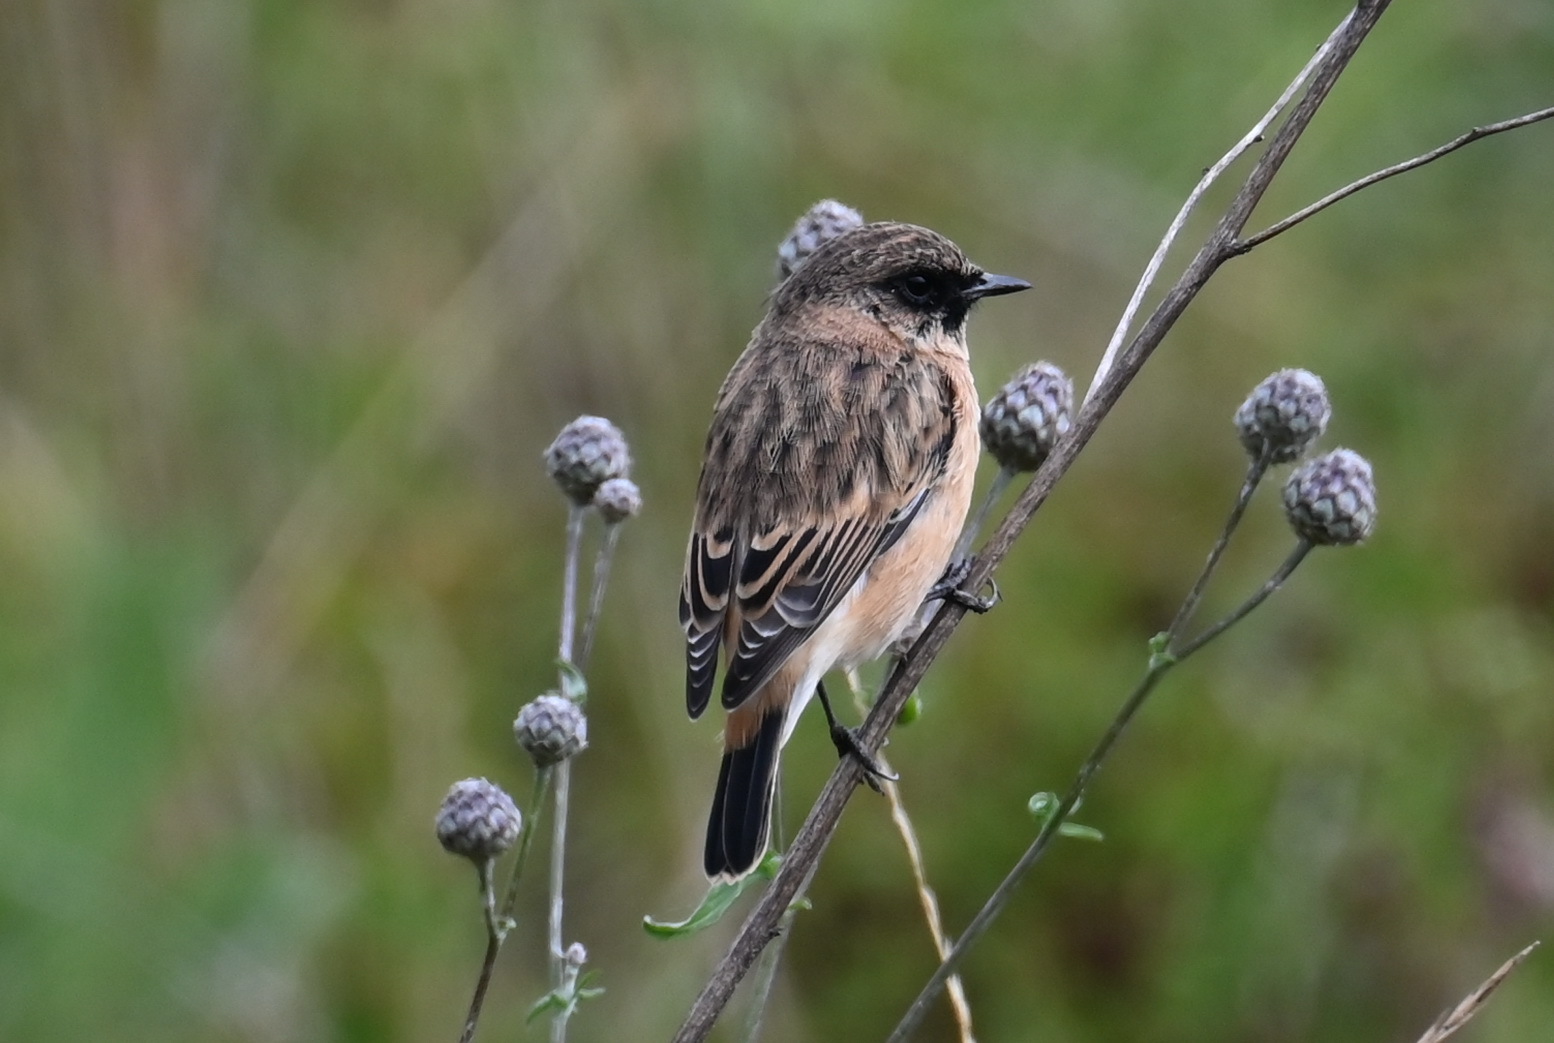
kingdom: Animalia
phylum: Chordata
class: Aves
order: Passeriformes
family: Muscicapidae
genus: Saxicola
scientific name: Saxicola maurus
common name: Siberian stonechat
